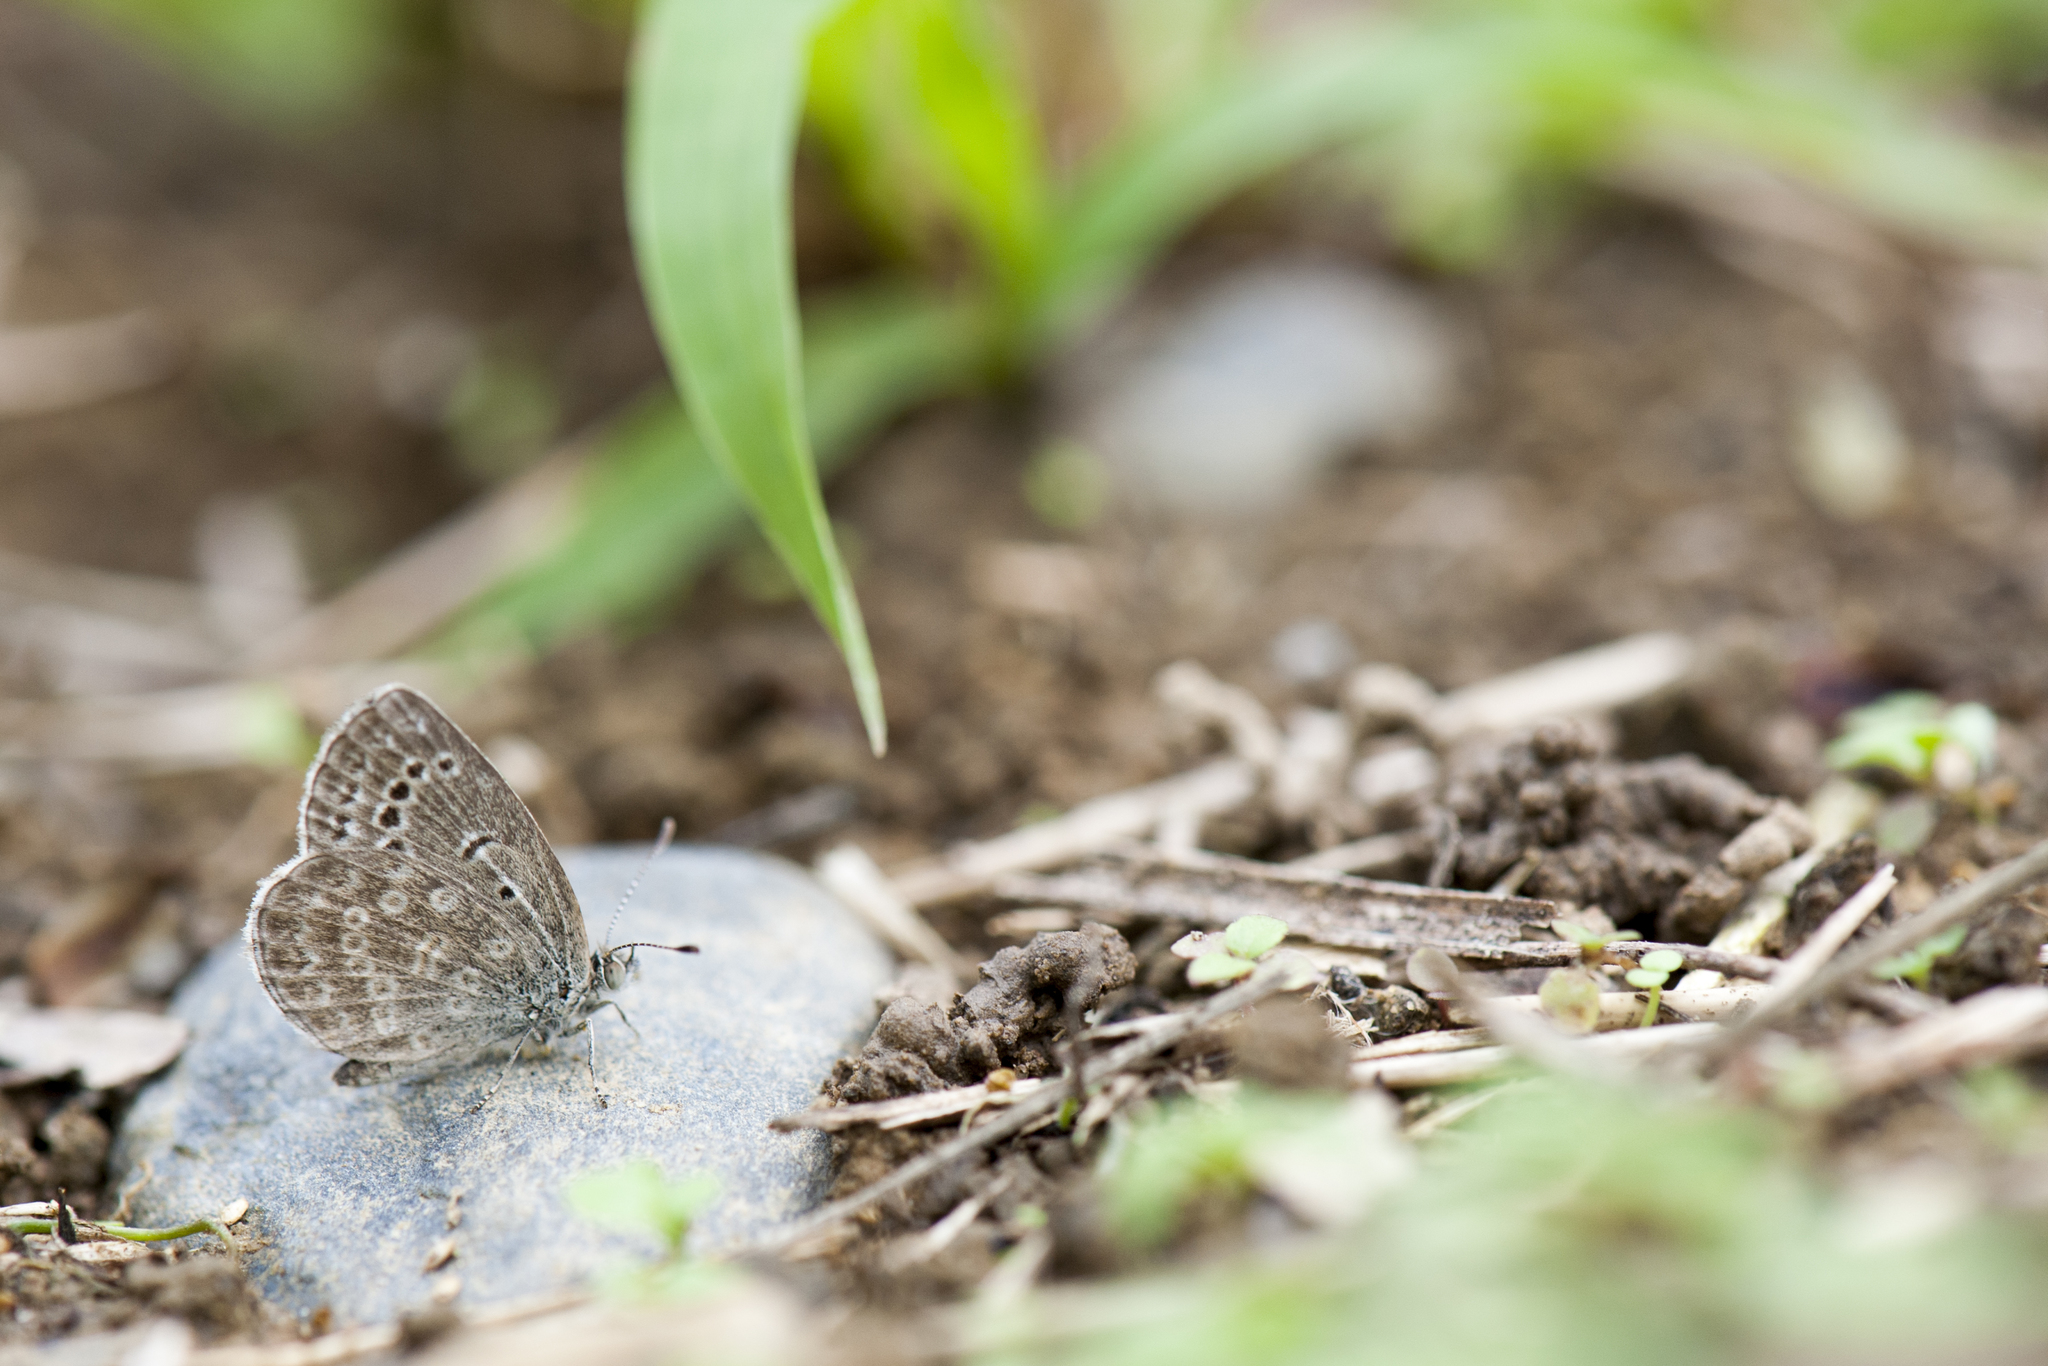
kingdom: Animalia
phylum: Arthropoda
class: Insecta
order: Lepidoptera
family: Lycaenidae
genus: Pseudozizeeria
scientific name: Pseudozizeeria maha
